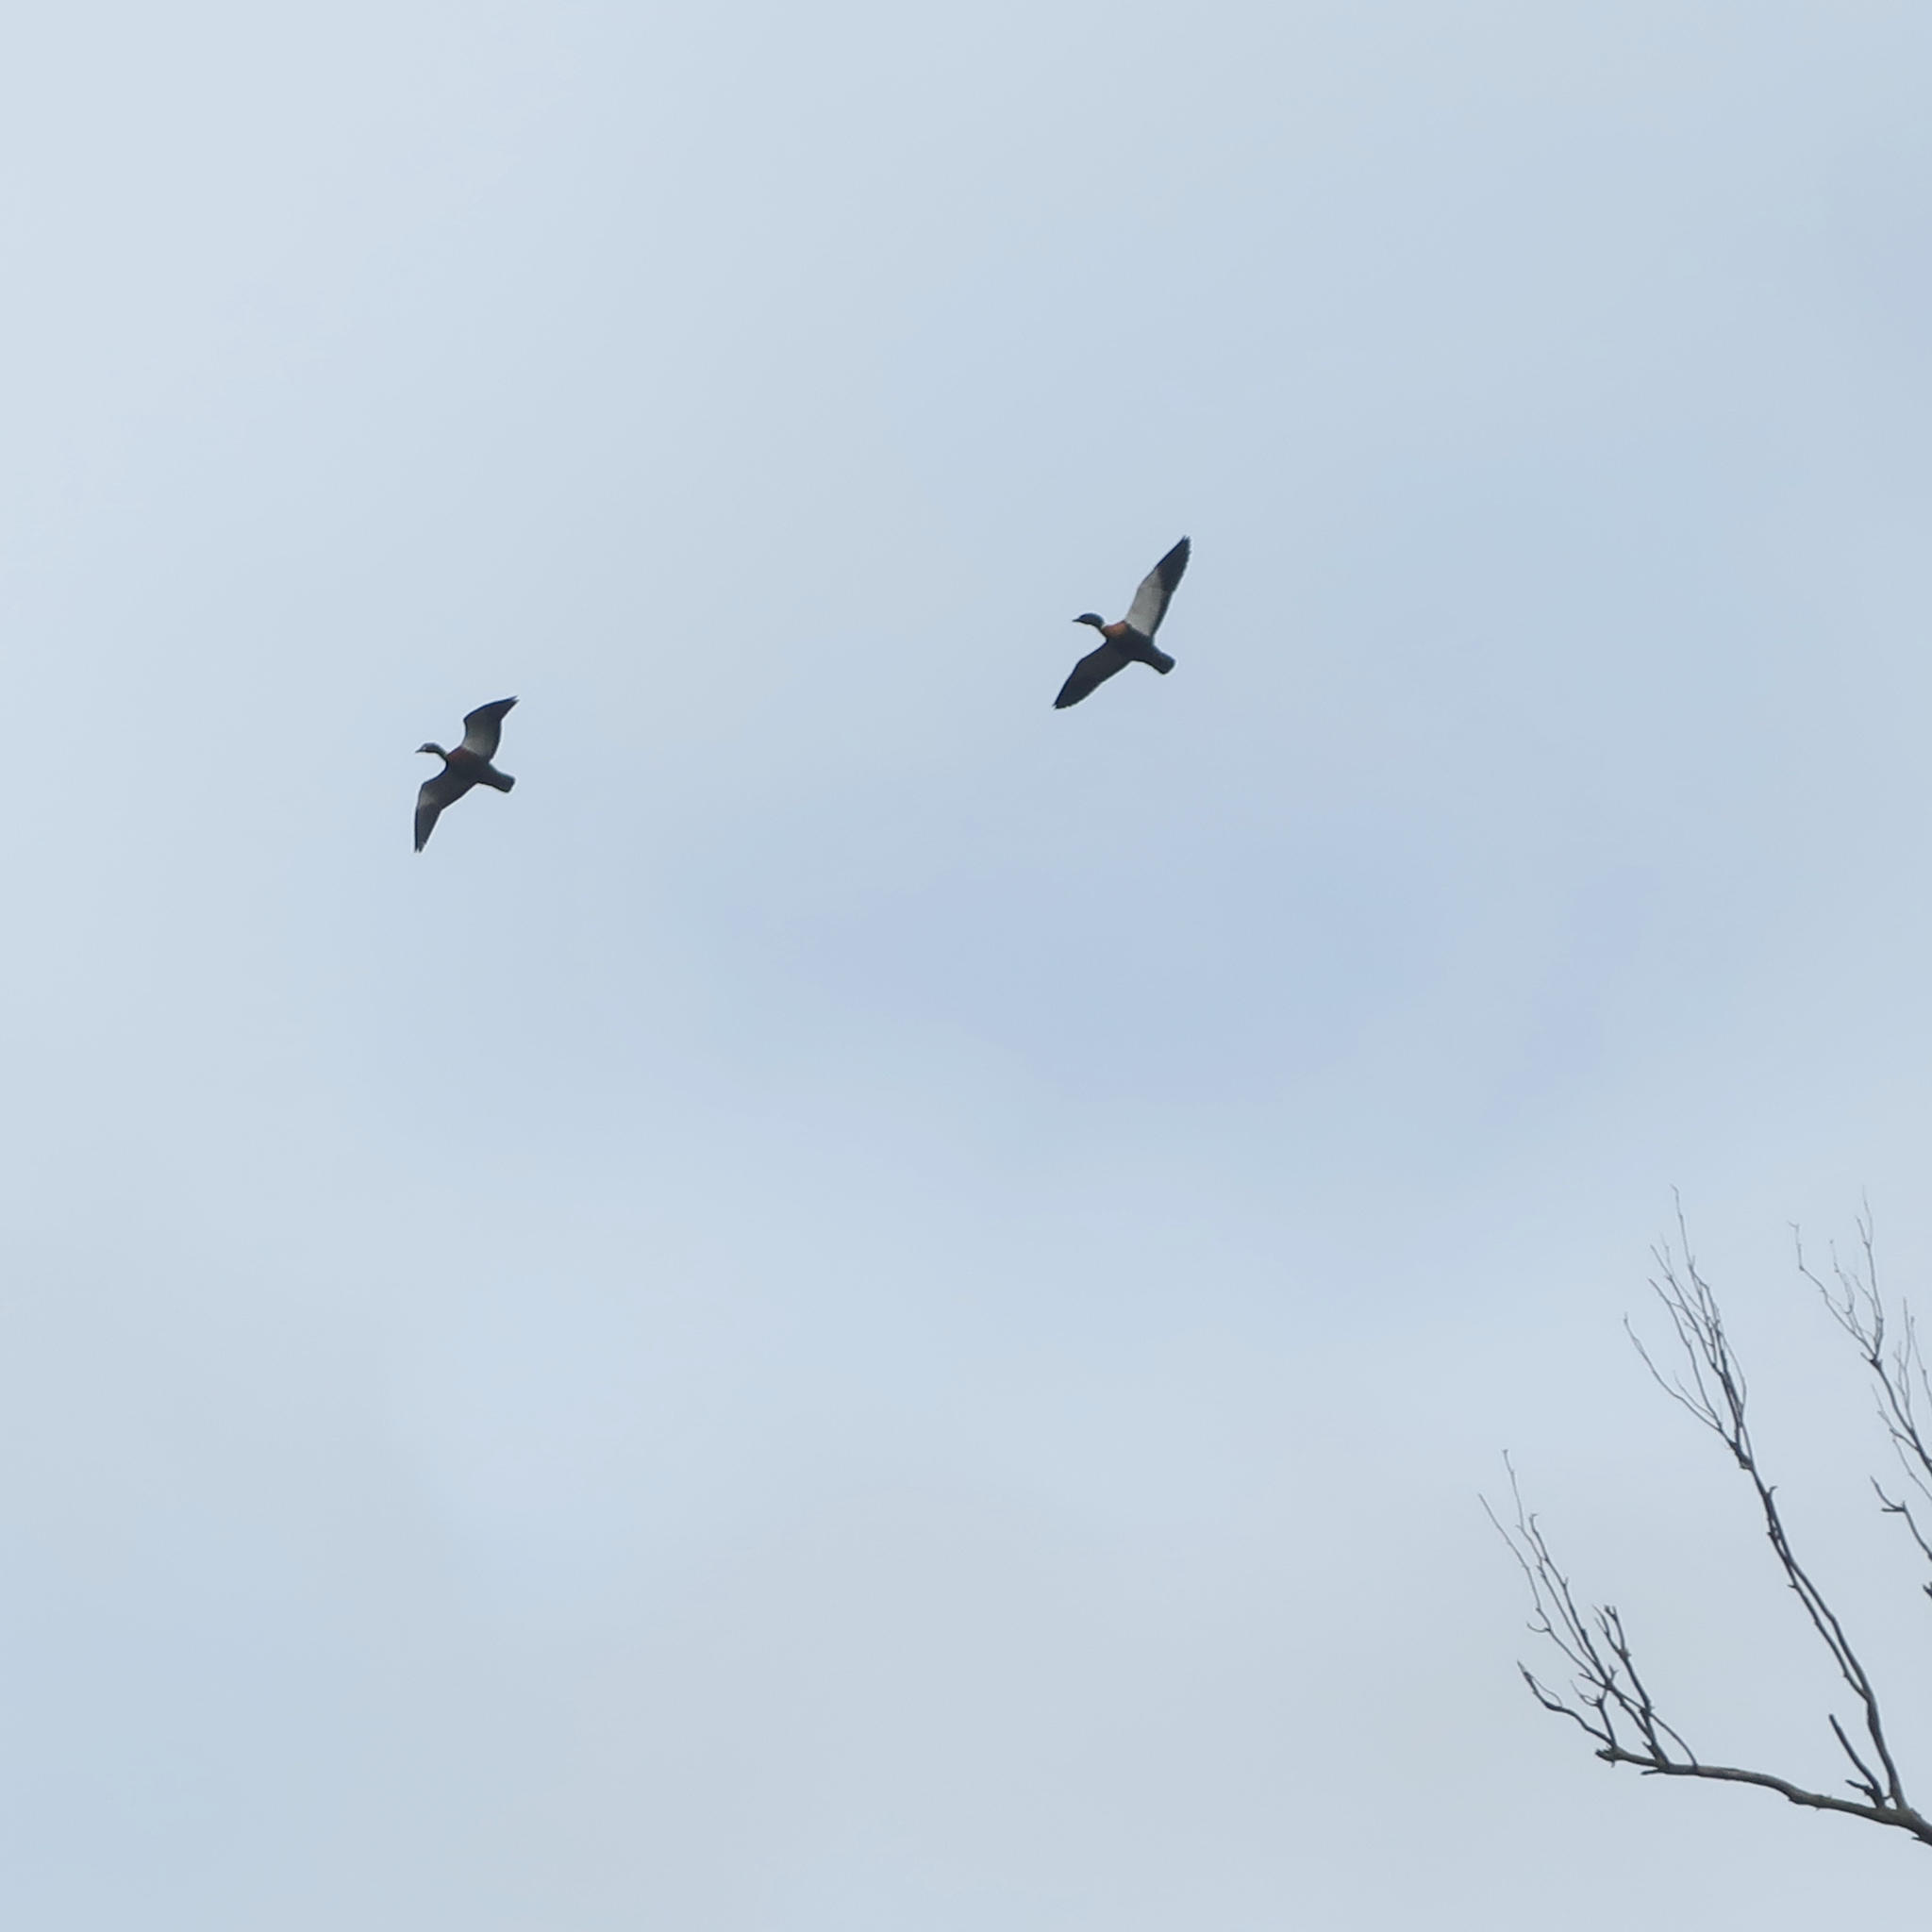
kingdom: Animalia
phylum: Chordata
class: Aves
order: Anseriformes
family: Anatidae
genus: Tadorna
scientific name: Tadorna tadornoides
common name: Australian shelduck
